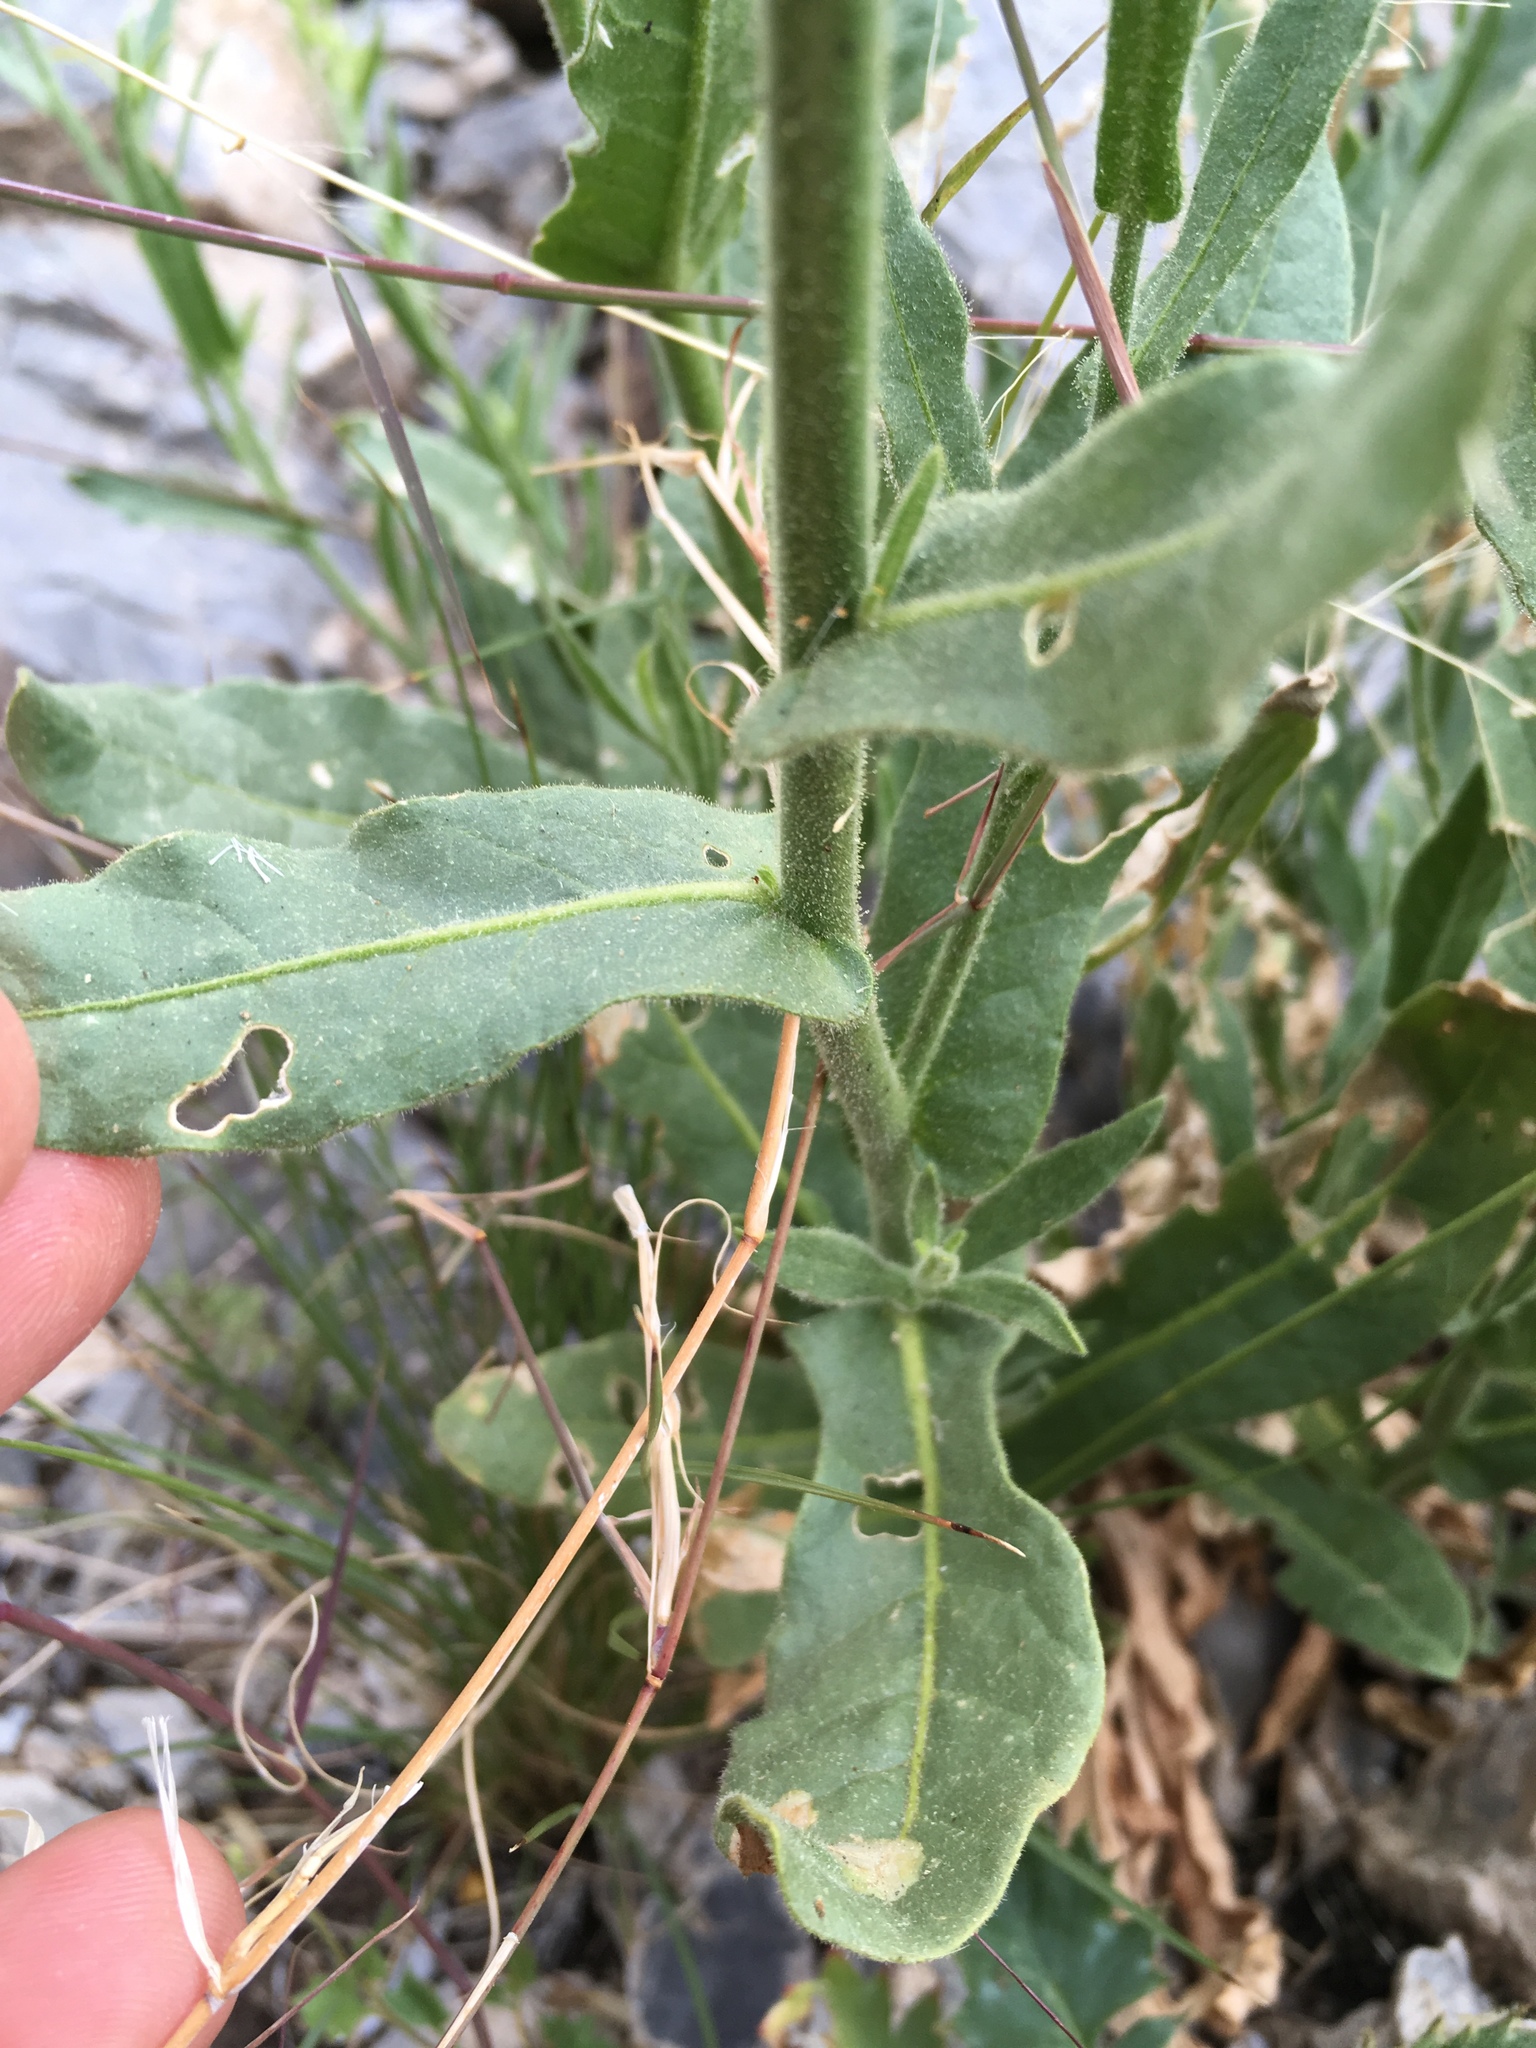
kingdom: Plantae
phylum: Tracheophyta
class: Magnoliopsida
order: Solanales
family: Solanaceae
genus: Nicotiana
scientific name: Nicotiana obtusifolia
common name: Desert tobacco
